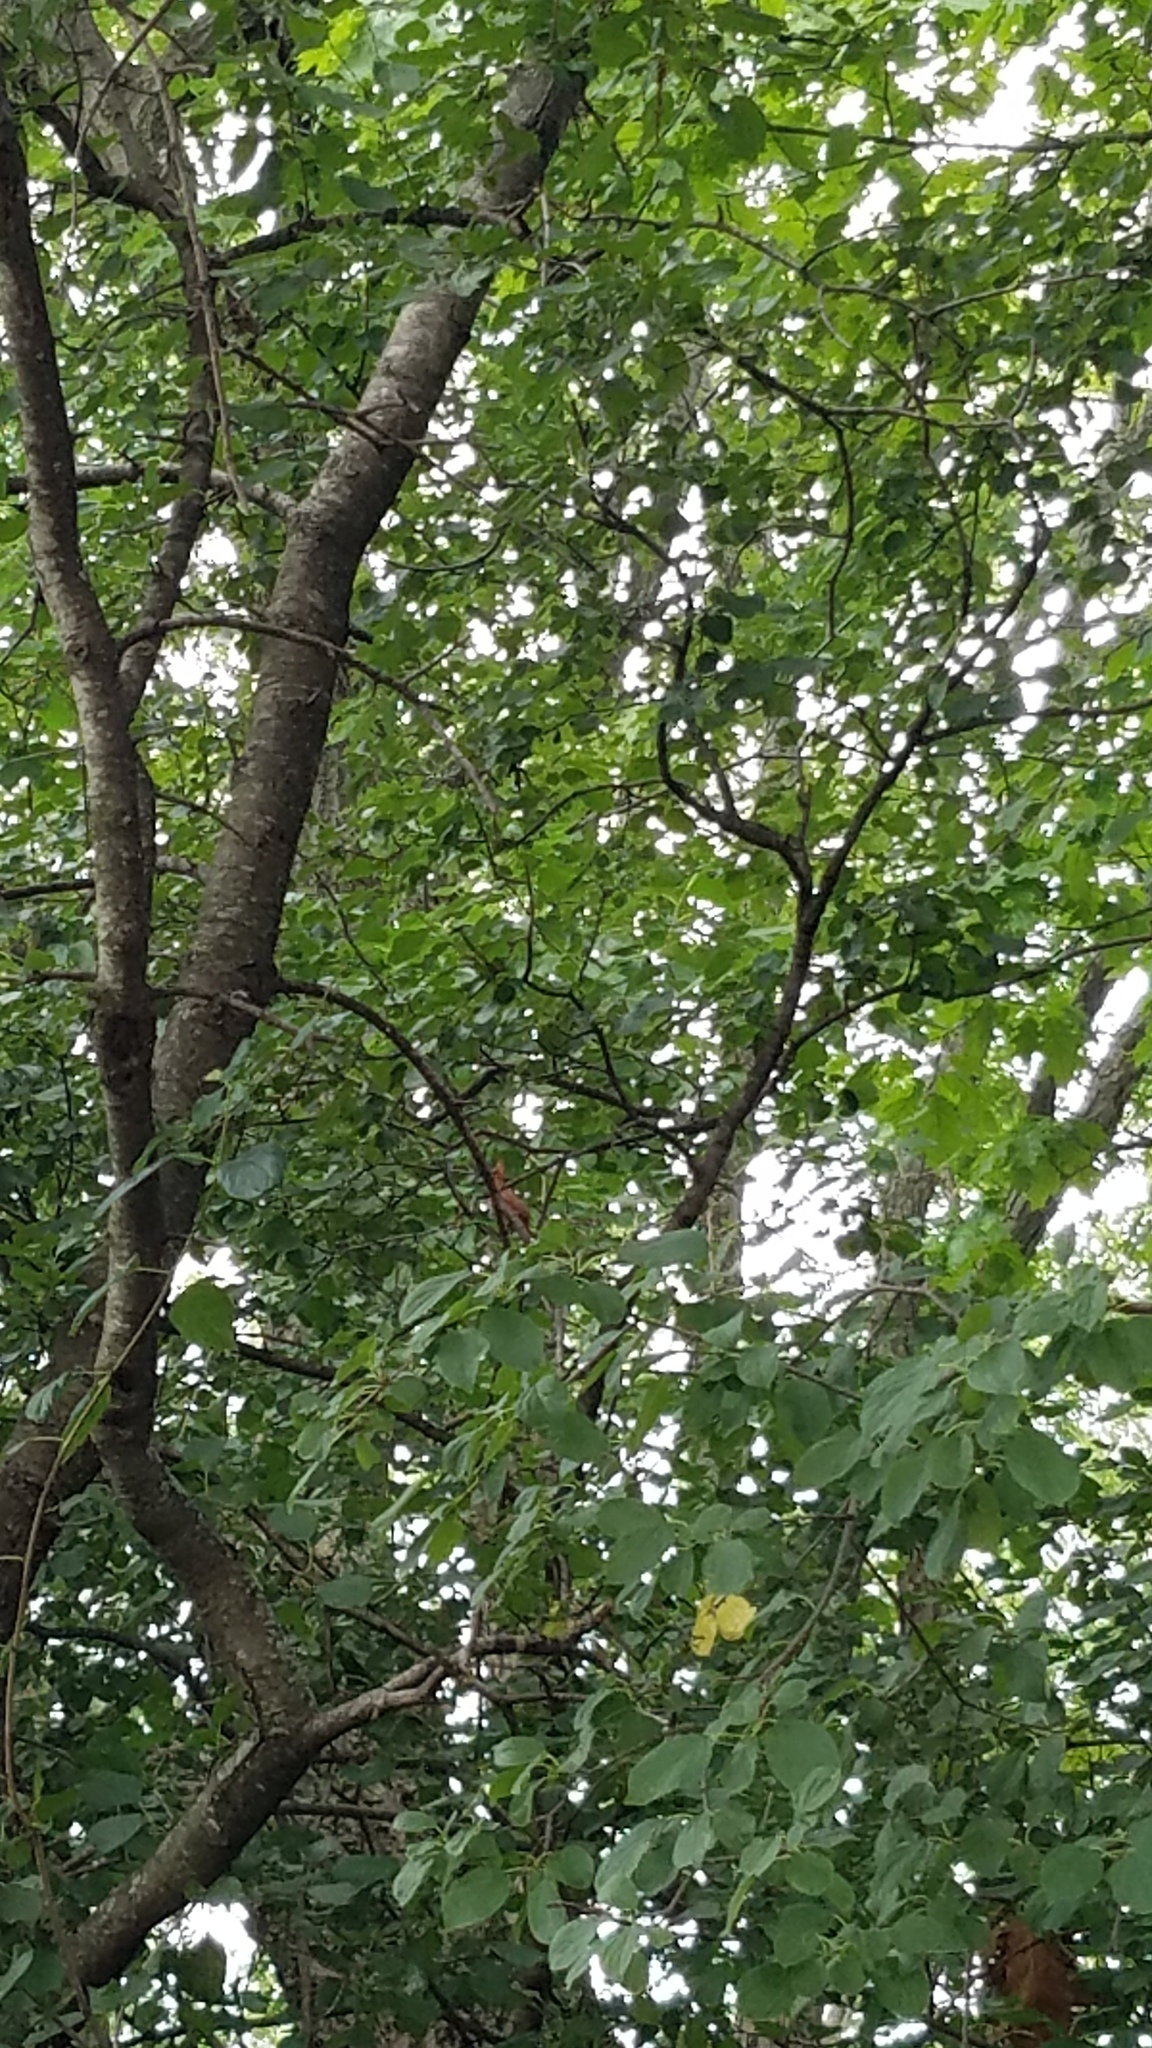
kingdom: Plantae
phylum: Tracheophyta
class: Magnoliopsida
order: Rosales
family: Rhamnaceae
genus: Rhamnus
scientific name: Rhamnus cathartica
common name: Common buckthorn
